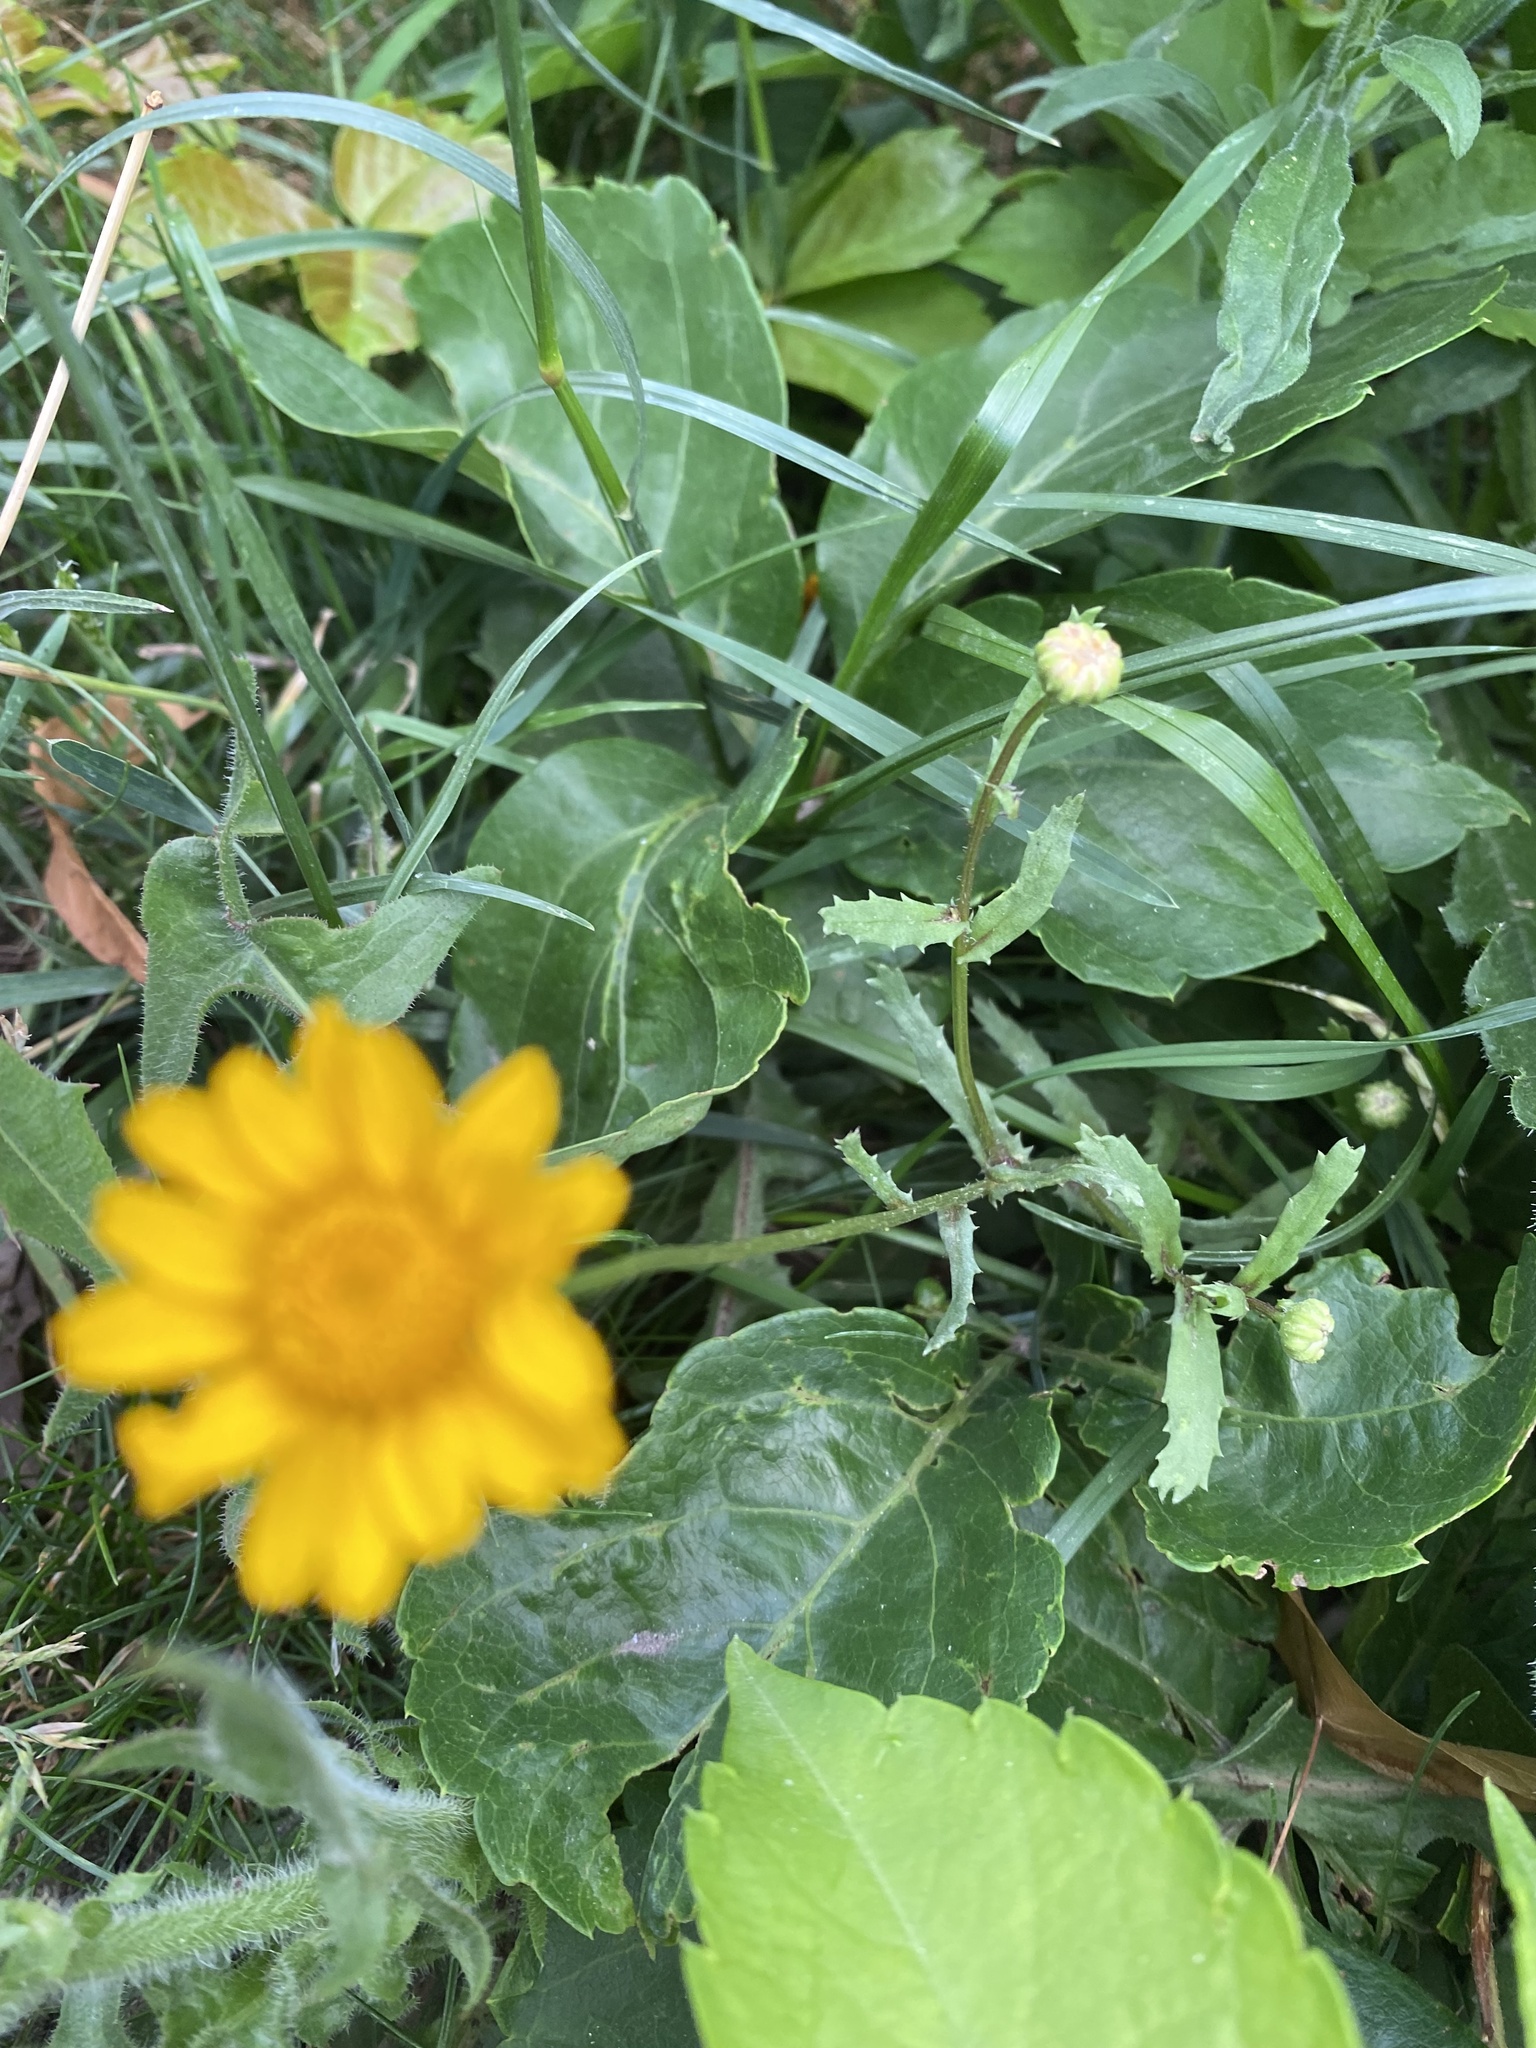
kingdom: Plantae
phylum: Tracheophyta
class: Magnoliopsida
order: Asterales
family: Asteraceae
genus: Glebionis
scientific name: Glebionis segetum
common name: Corndaisy
